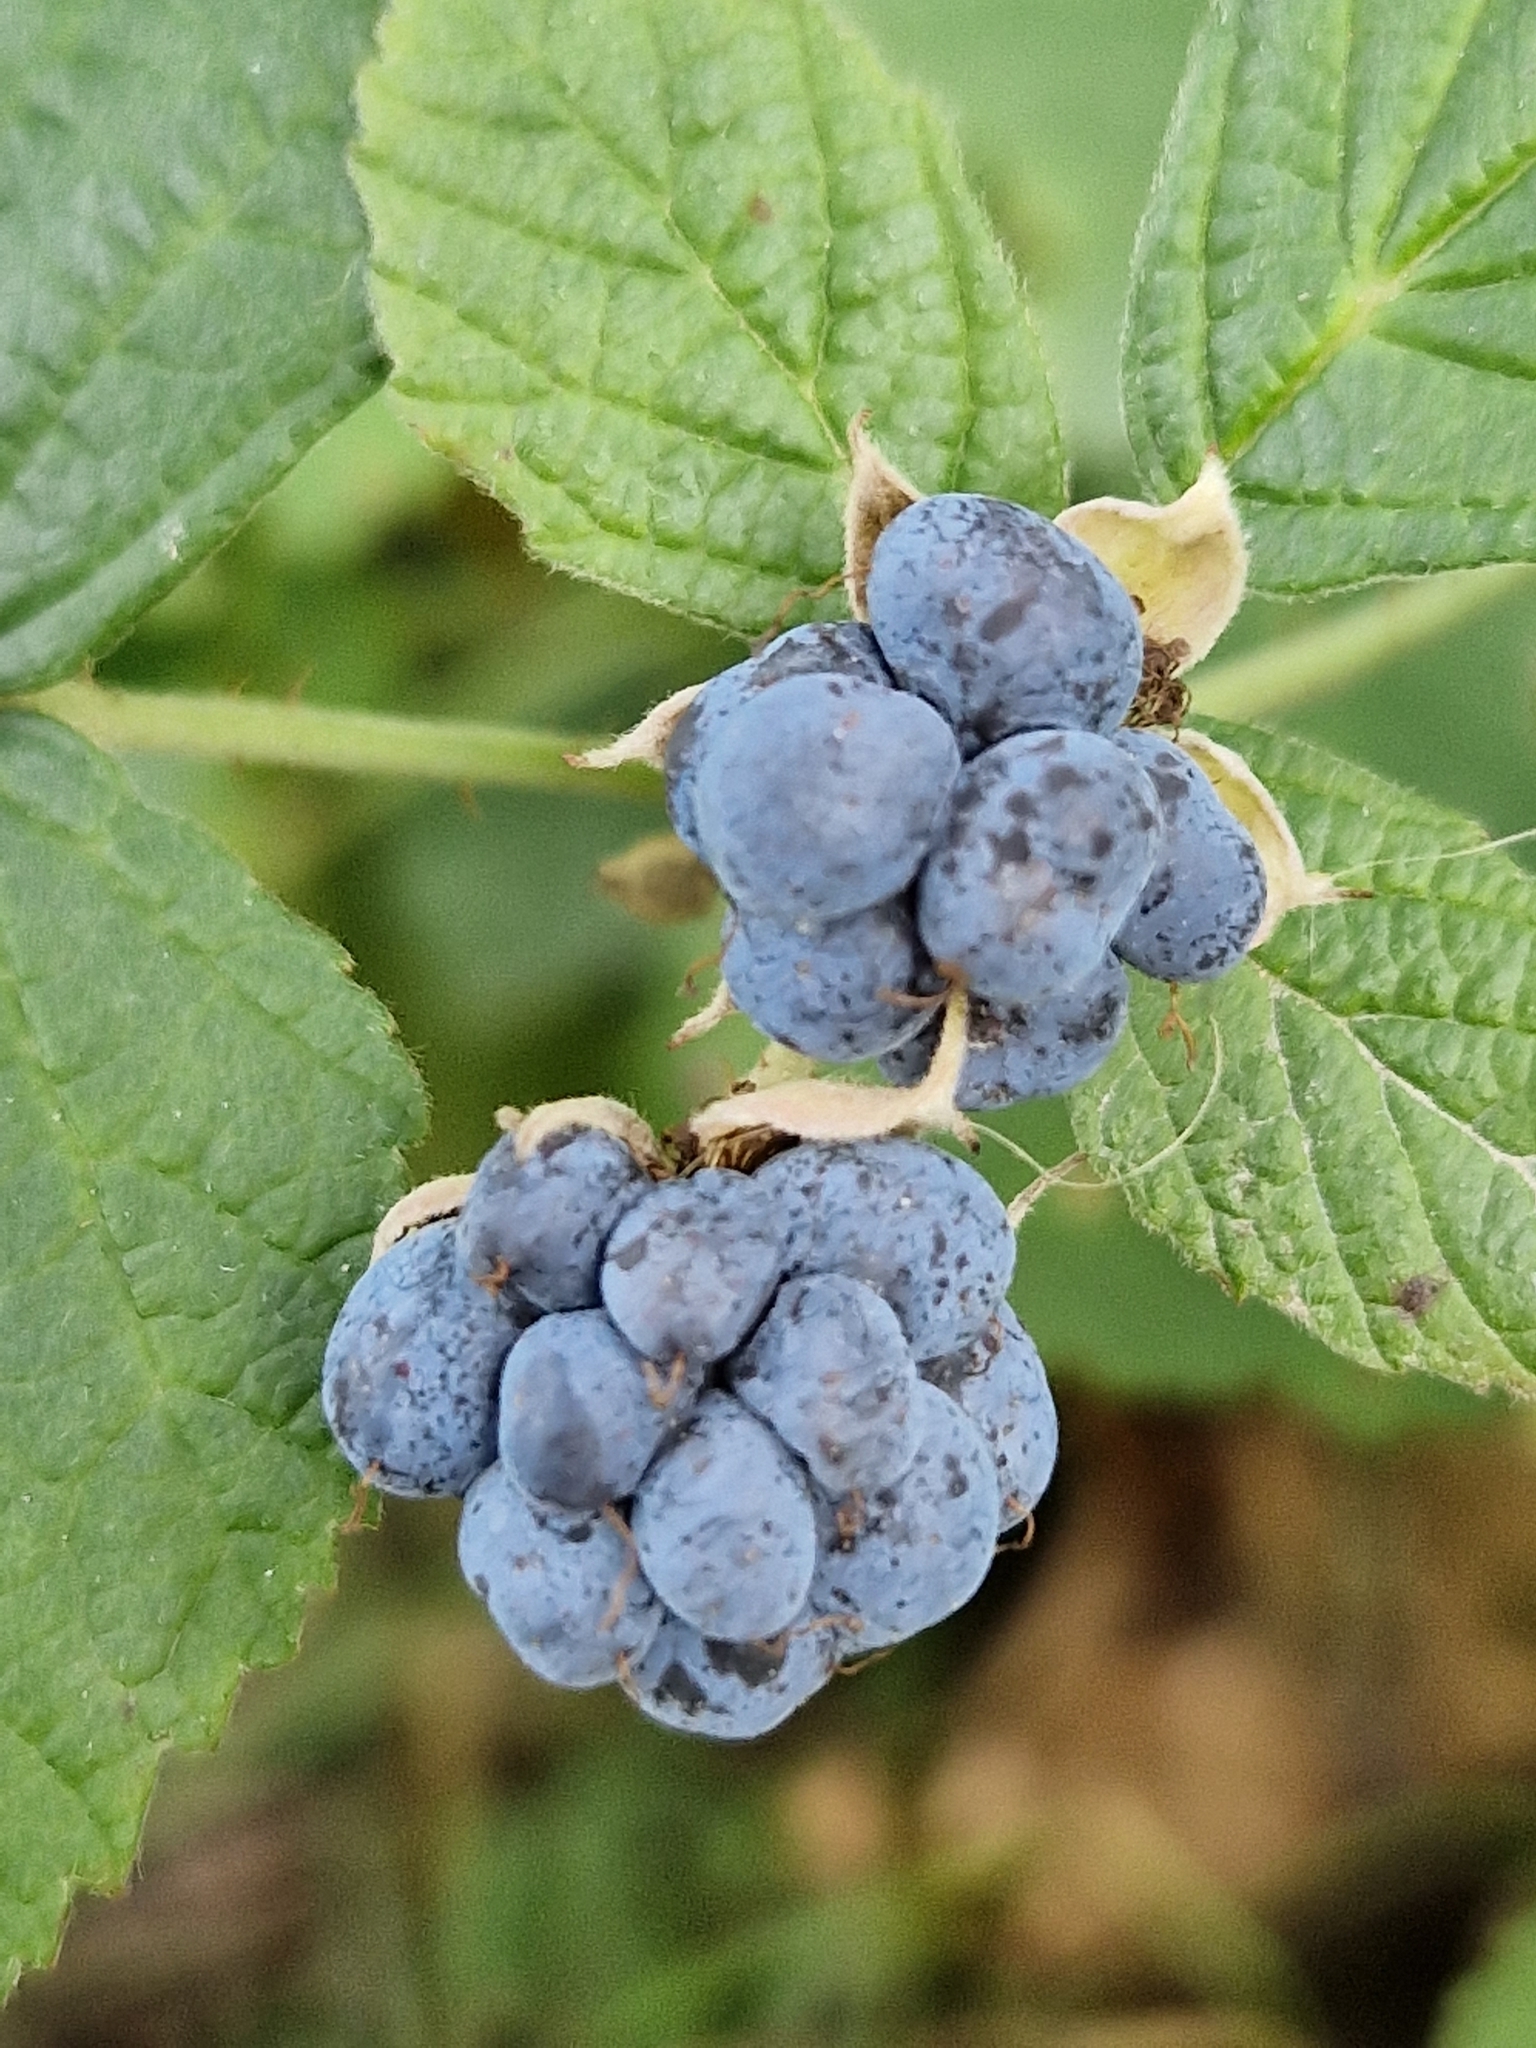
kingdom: Plantae
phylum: Tracheophyta
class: Magnoliopsida
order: Rosales
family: Rosaceae
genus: Rubus
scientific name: Rubus caesius
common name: Dewberry
